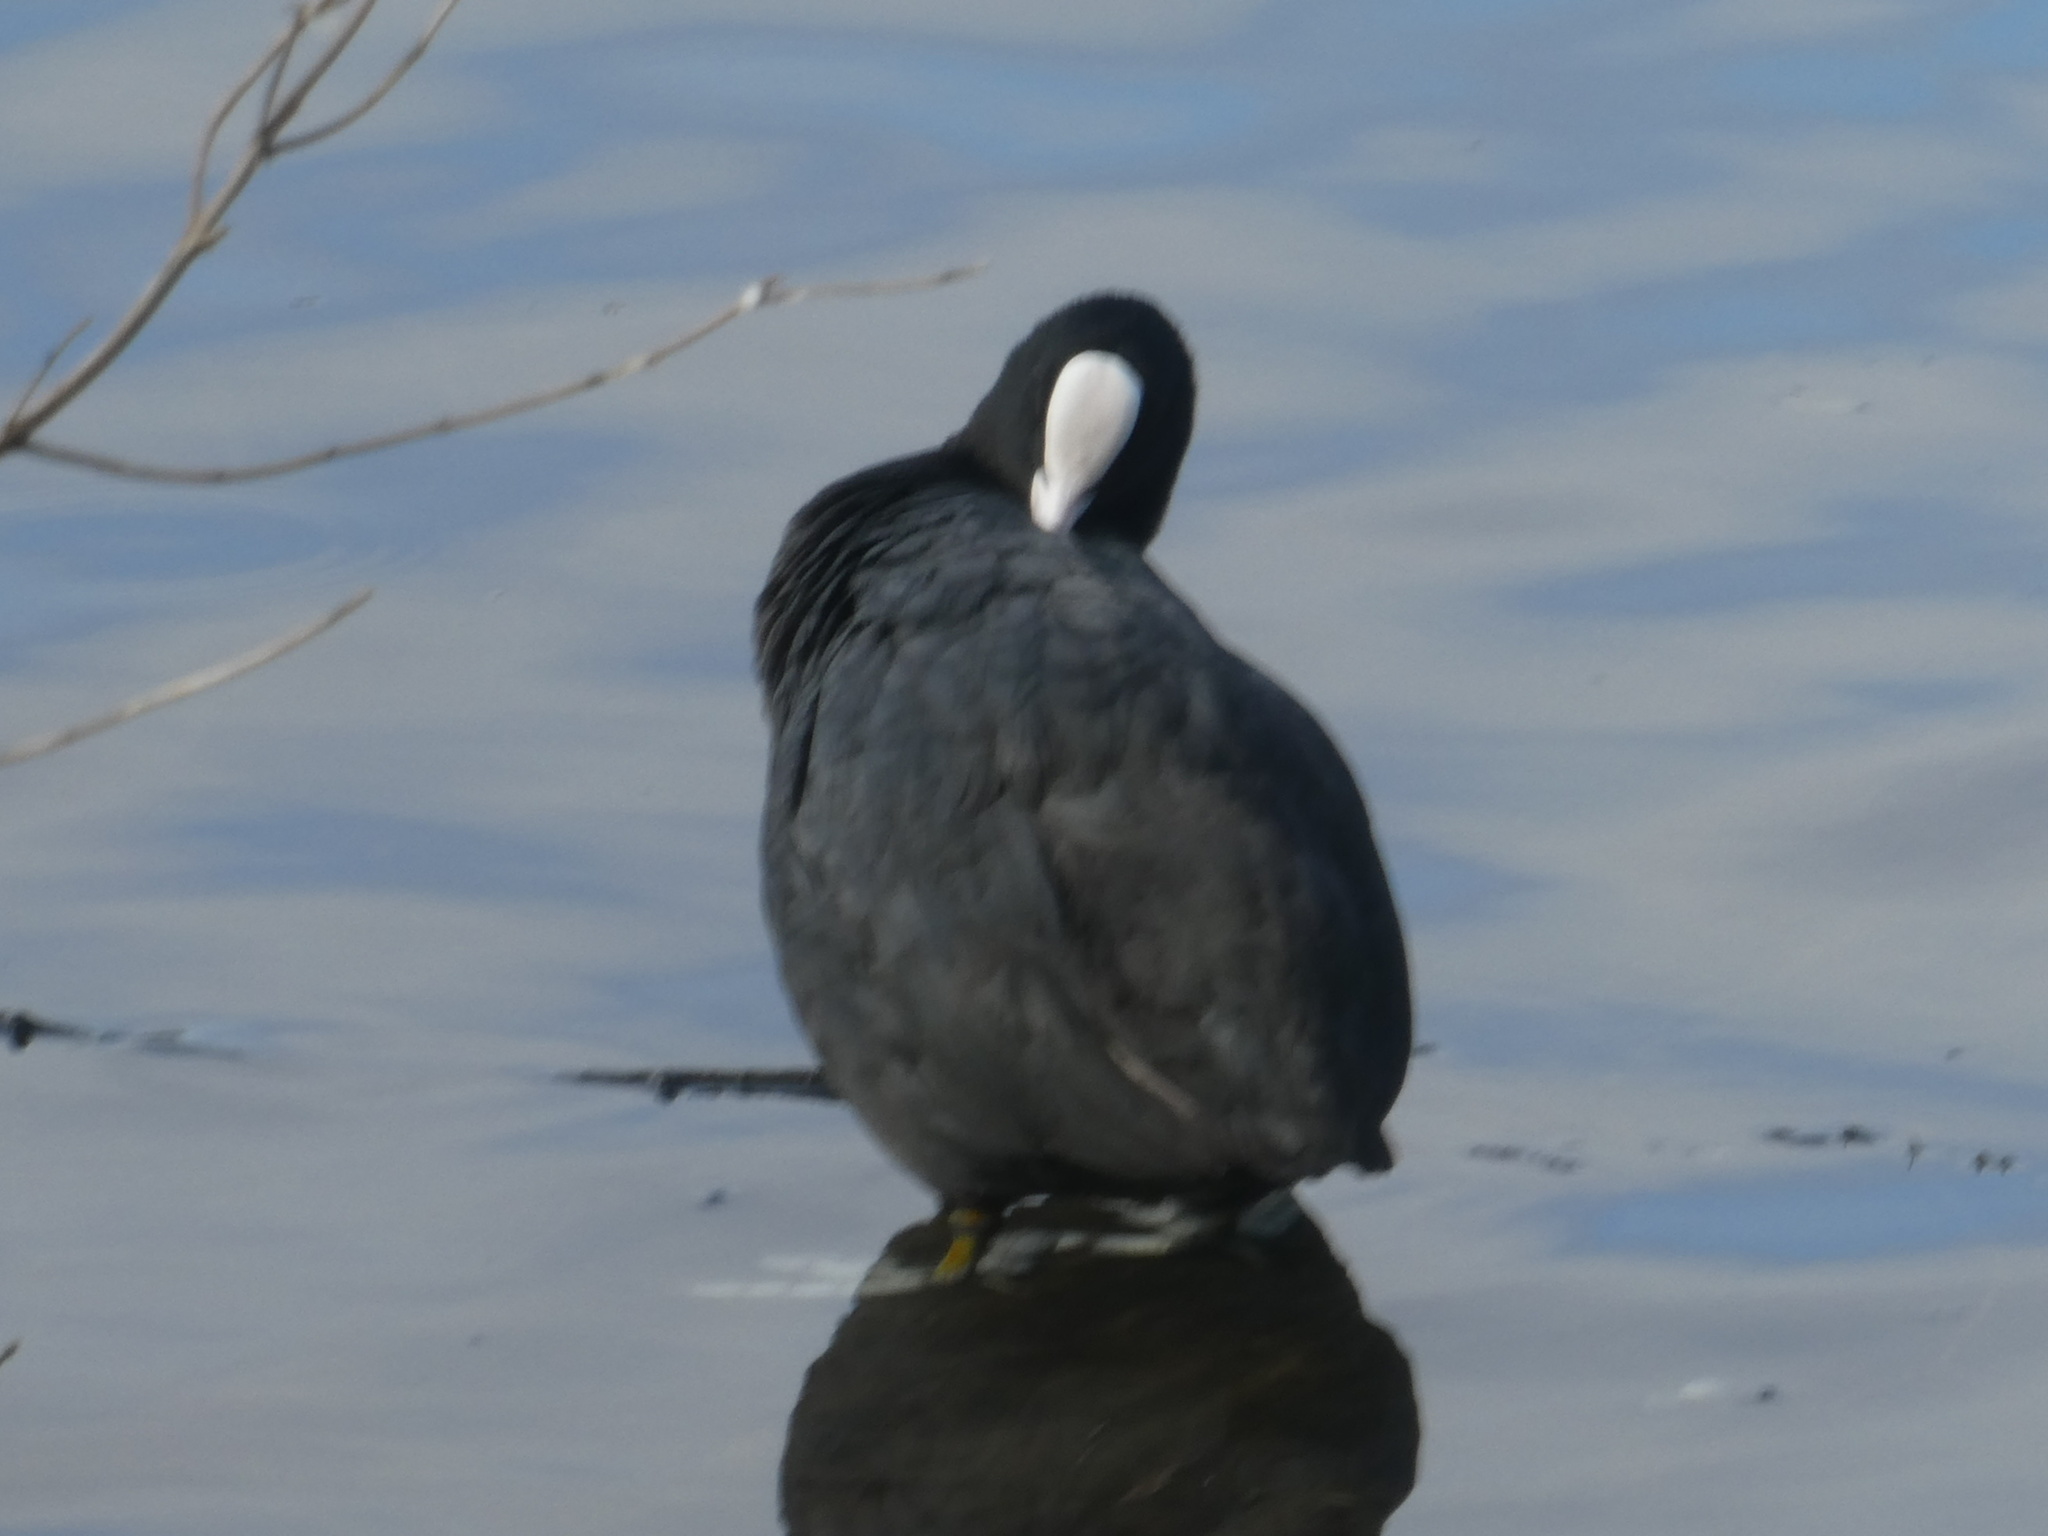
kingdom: Animalia
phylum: Chordata
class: Aves
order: Gruiformes
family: Rallidae
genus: Fulica
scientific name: Fulica atra
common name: Eurasian coot
